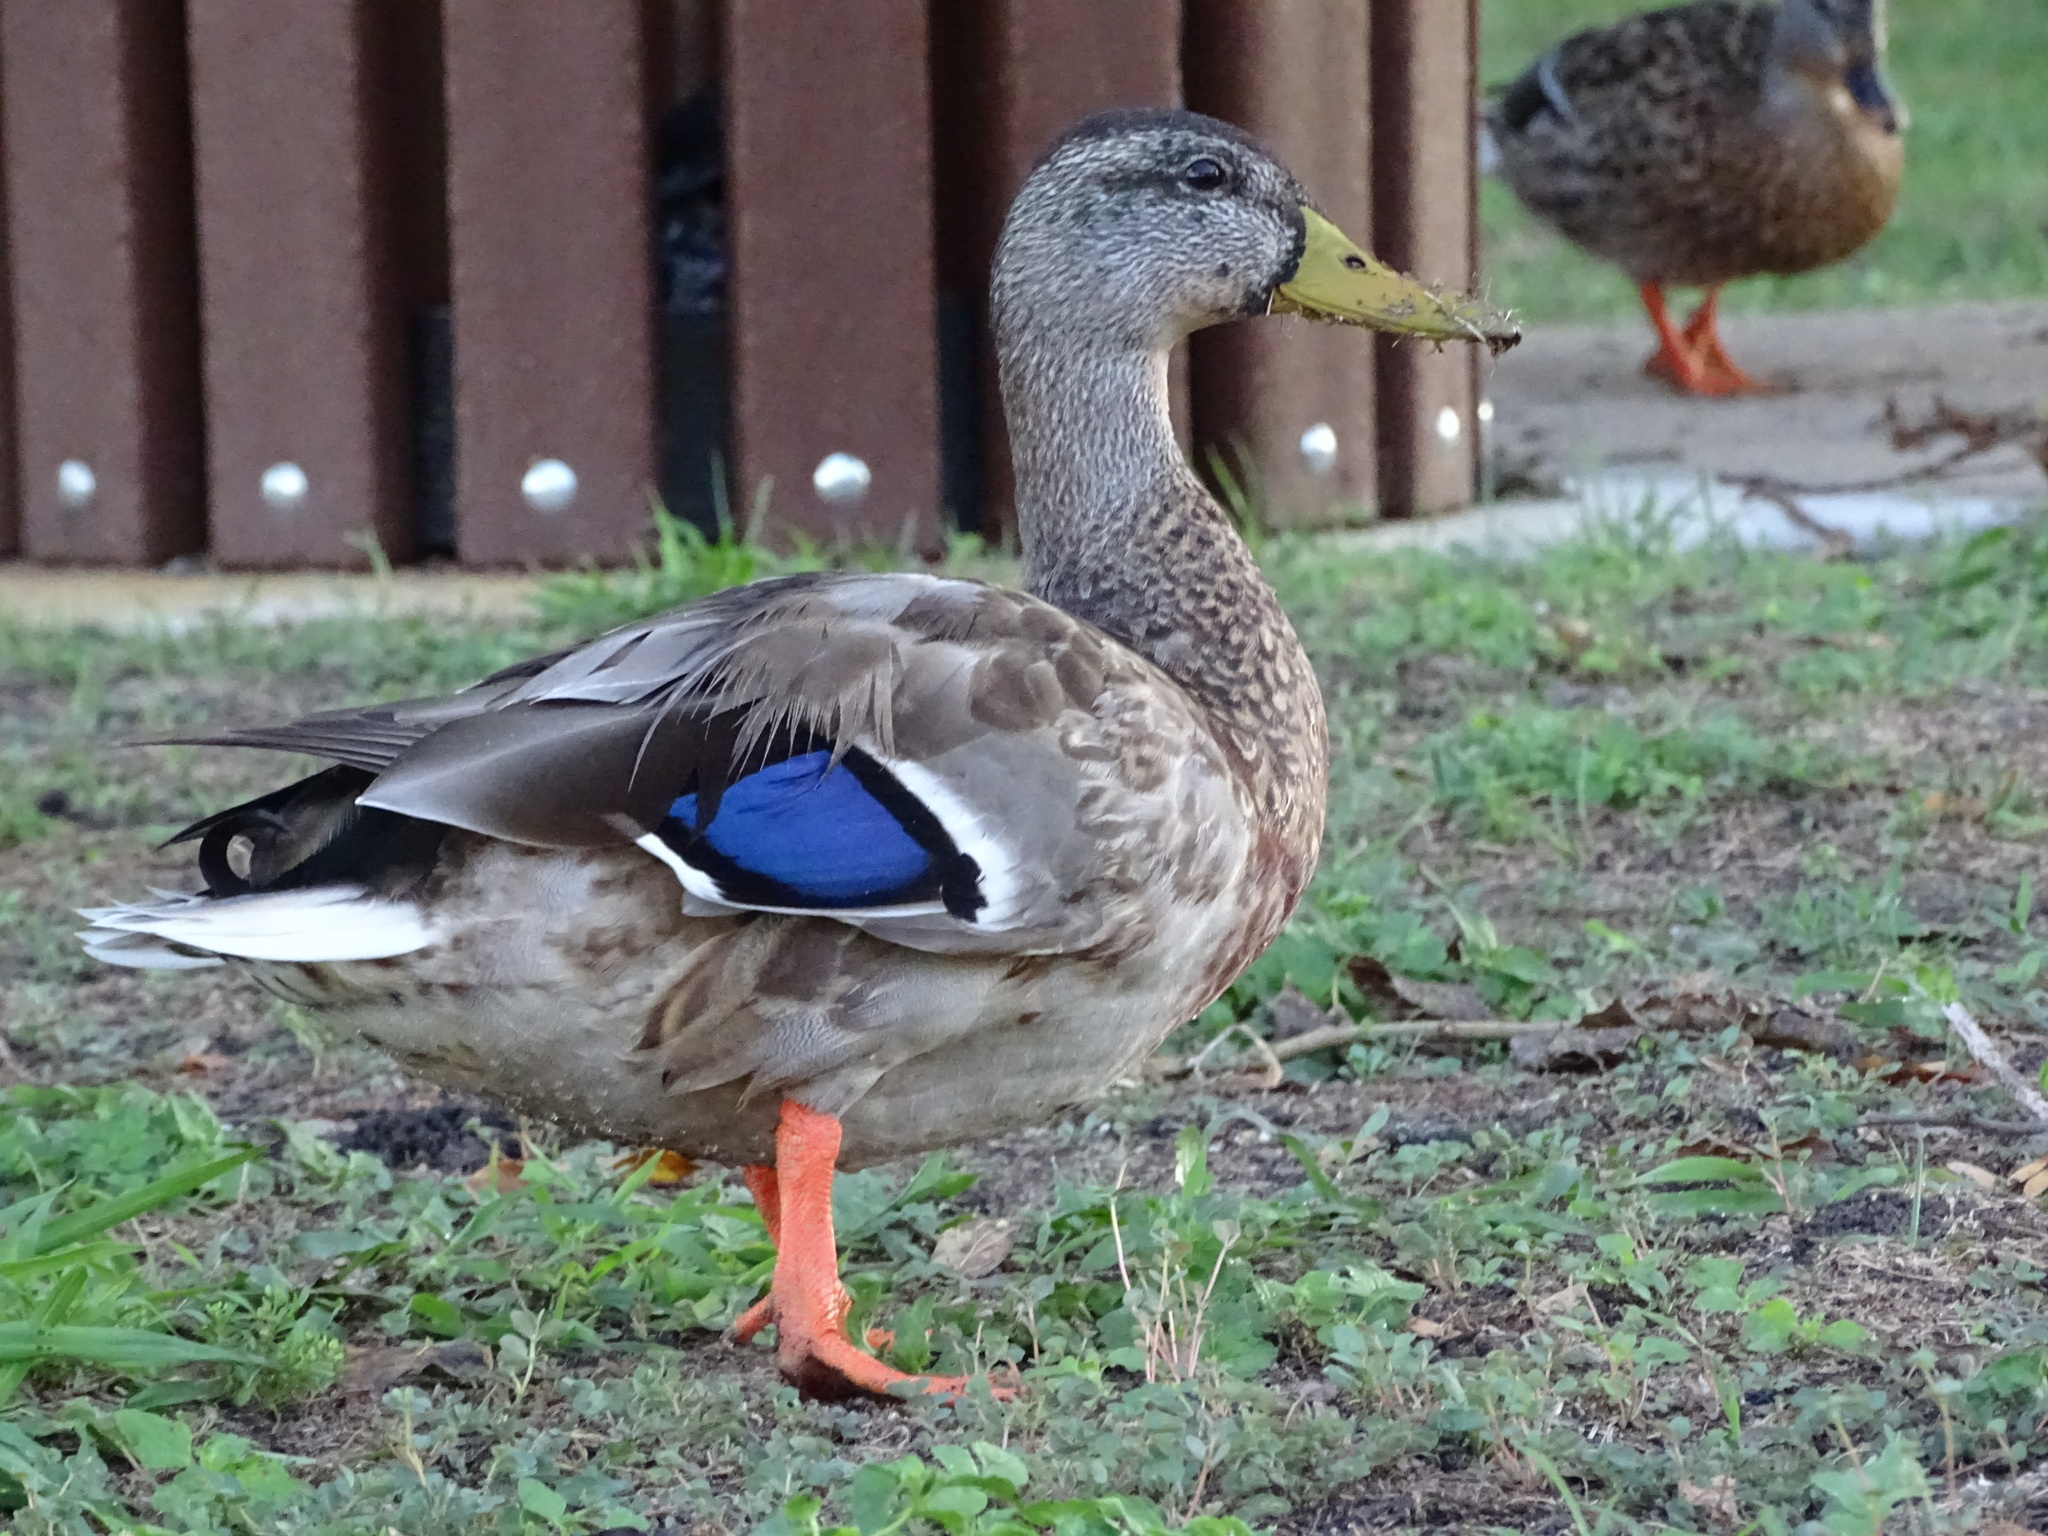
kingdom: Animalia
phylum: Chordata
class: Aves
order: Anseriformes
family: Anatidae
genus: Anas
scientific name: Anas platyrhynchos
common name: Mallard
